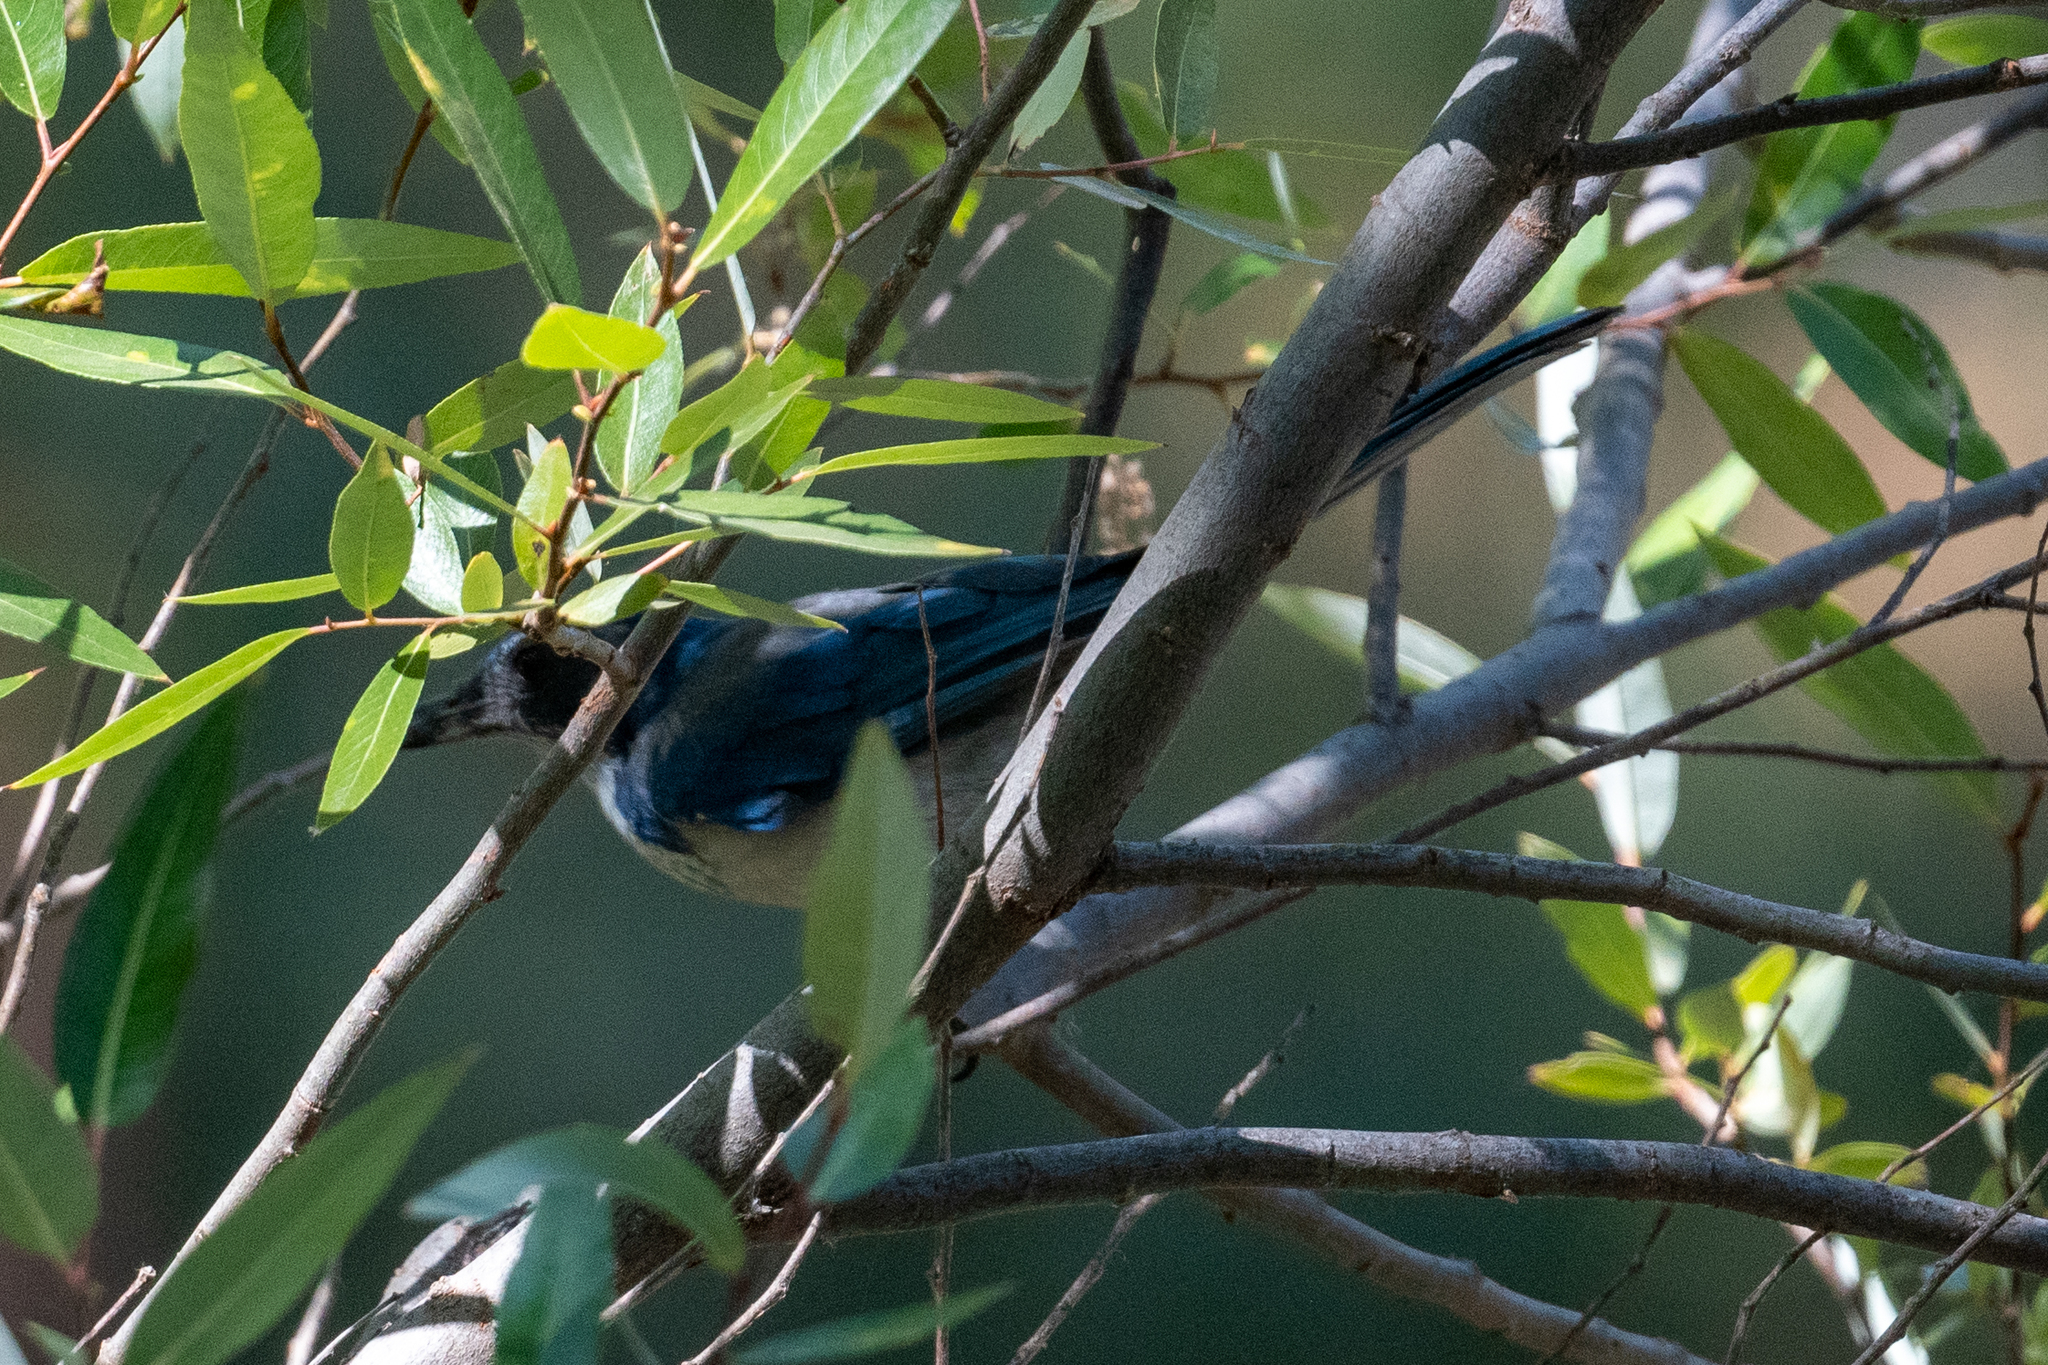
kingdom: Animalia
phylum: Chordata
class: Aves
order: Passeriformes
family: Corvidae
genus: Aphelocoma
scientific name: Aphelocoma californica
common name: California scrub-jay
